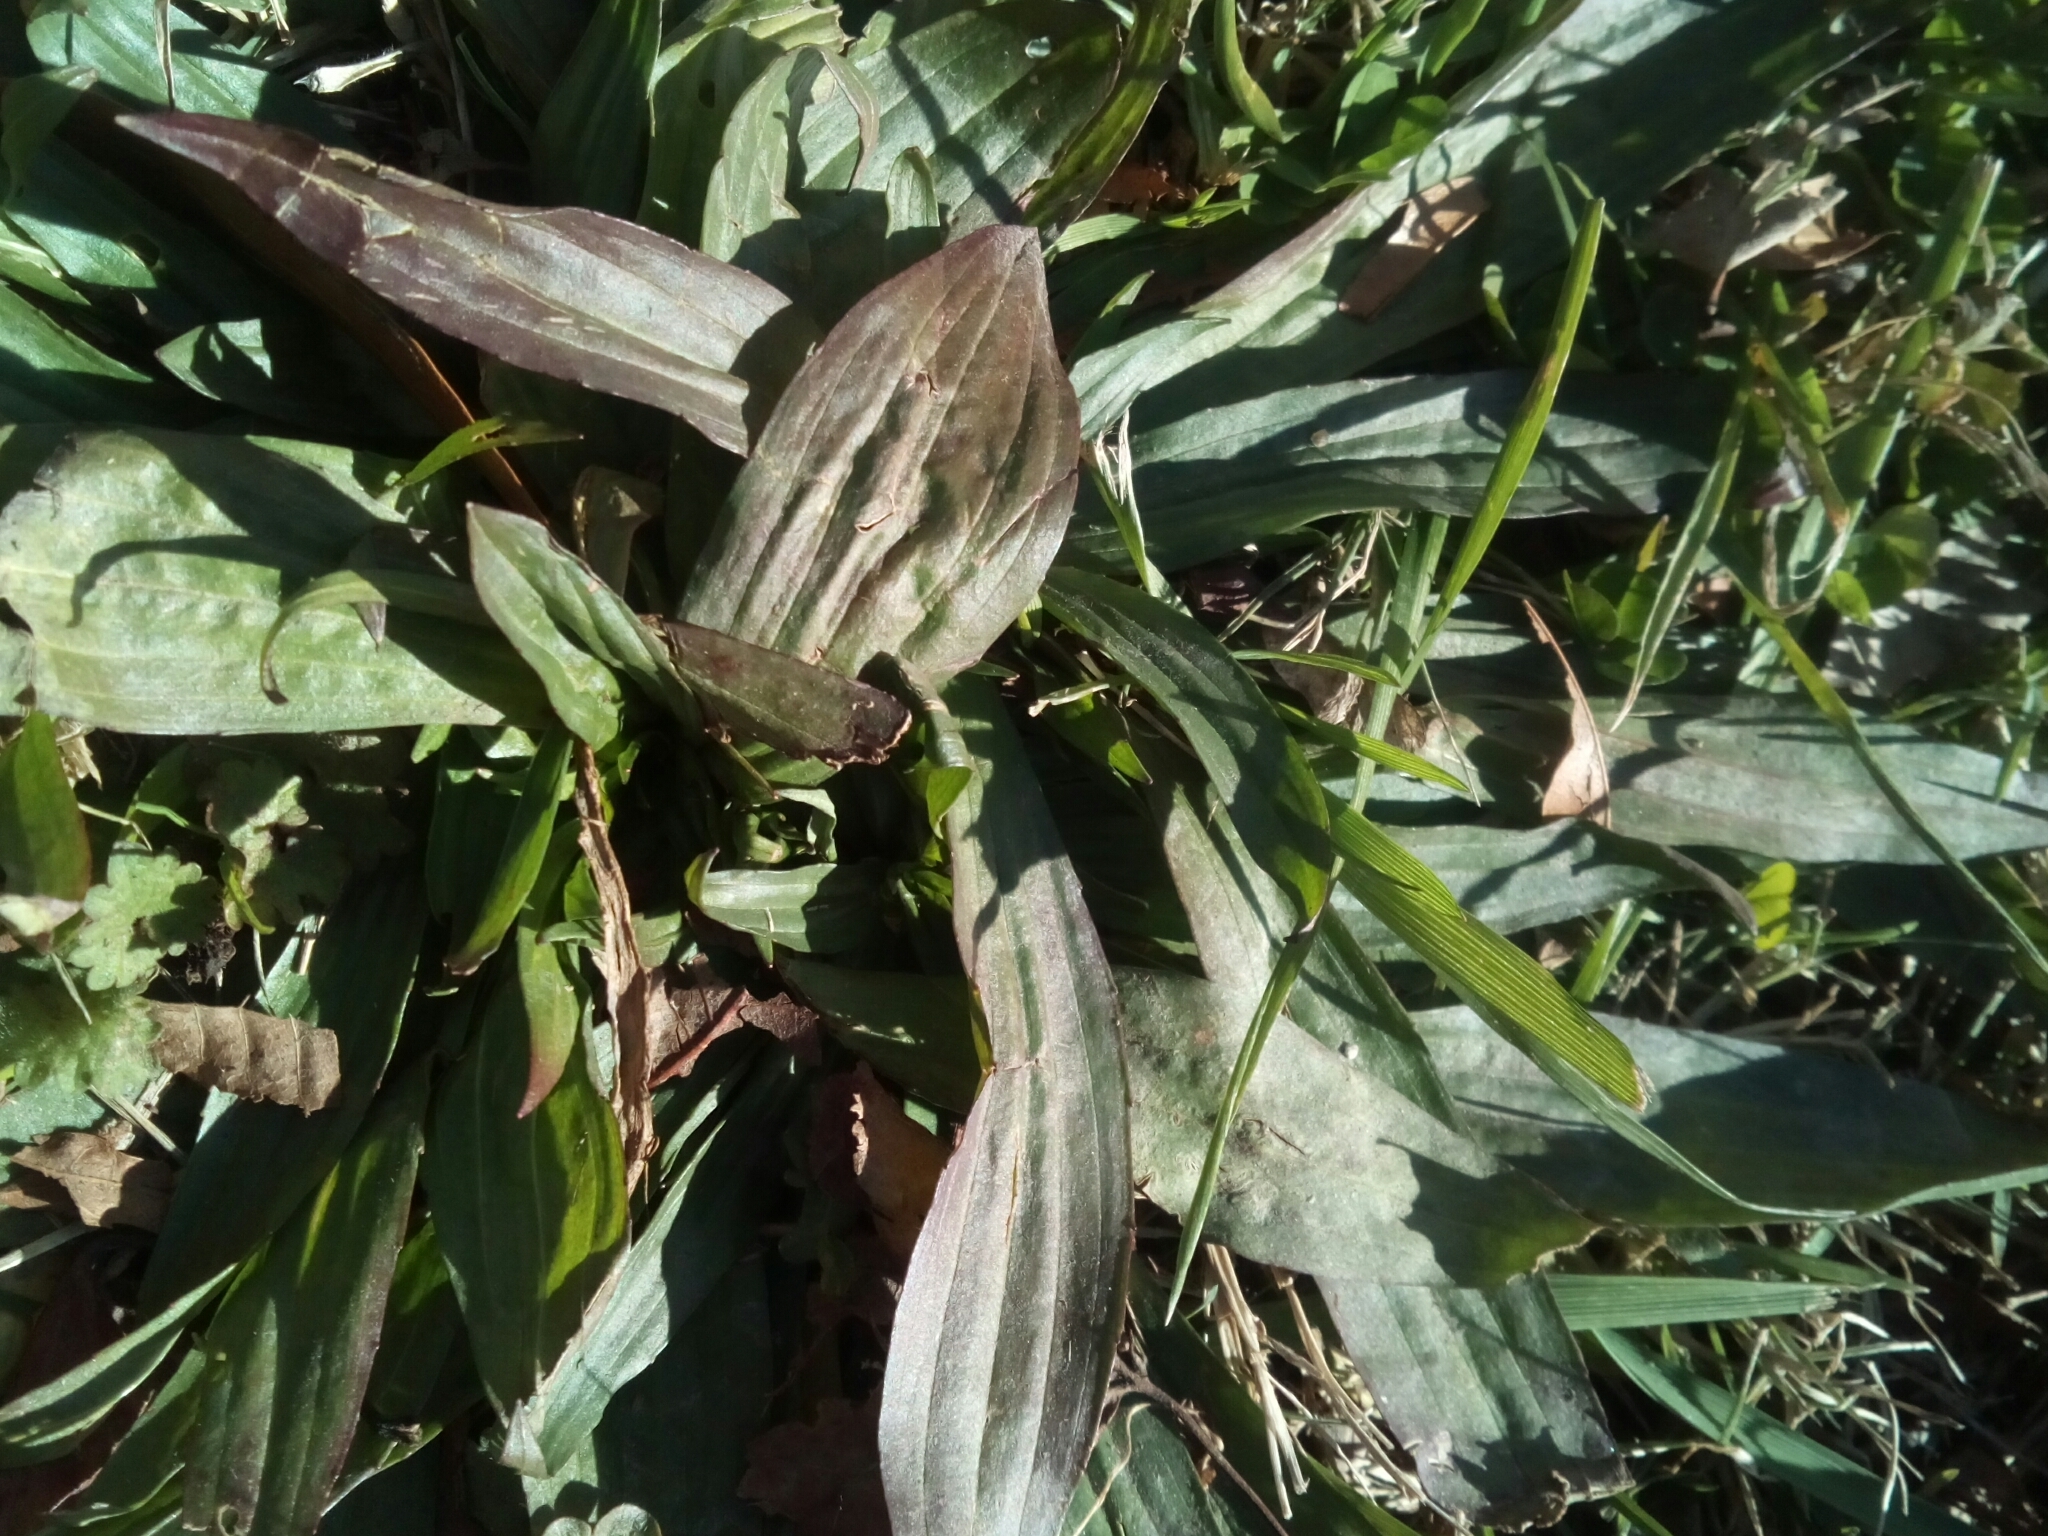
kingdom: Plantae
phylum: Tracheophyta
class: Magnoliopsida
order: Lamiales
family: Plantaginaceae
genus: Plantago
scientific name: Plantago lanceolata
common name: Ribwort plantain
